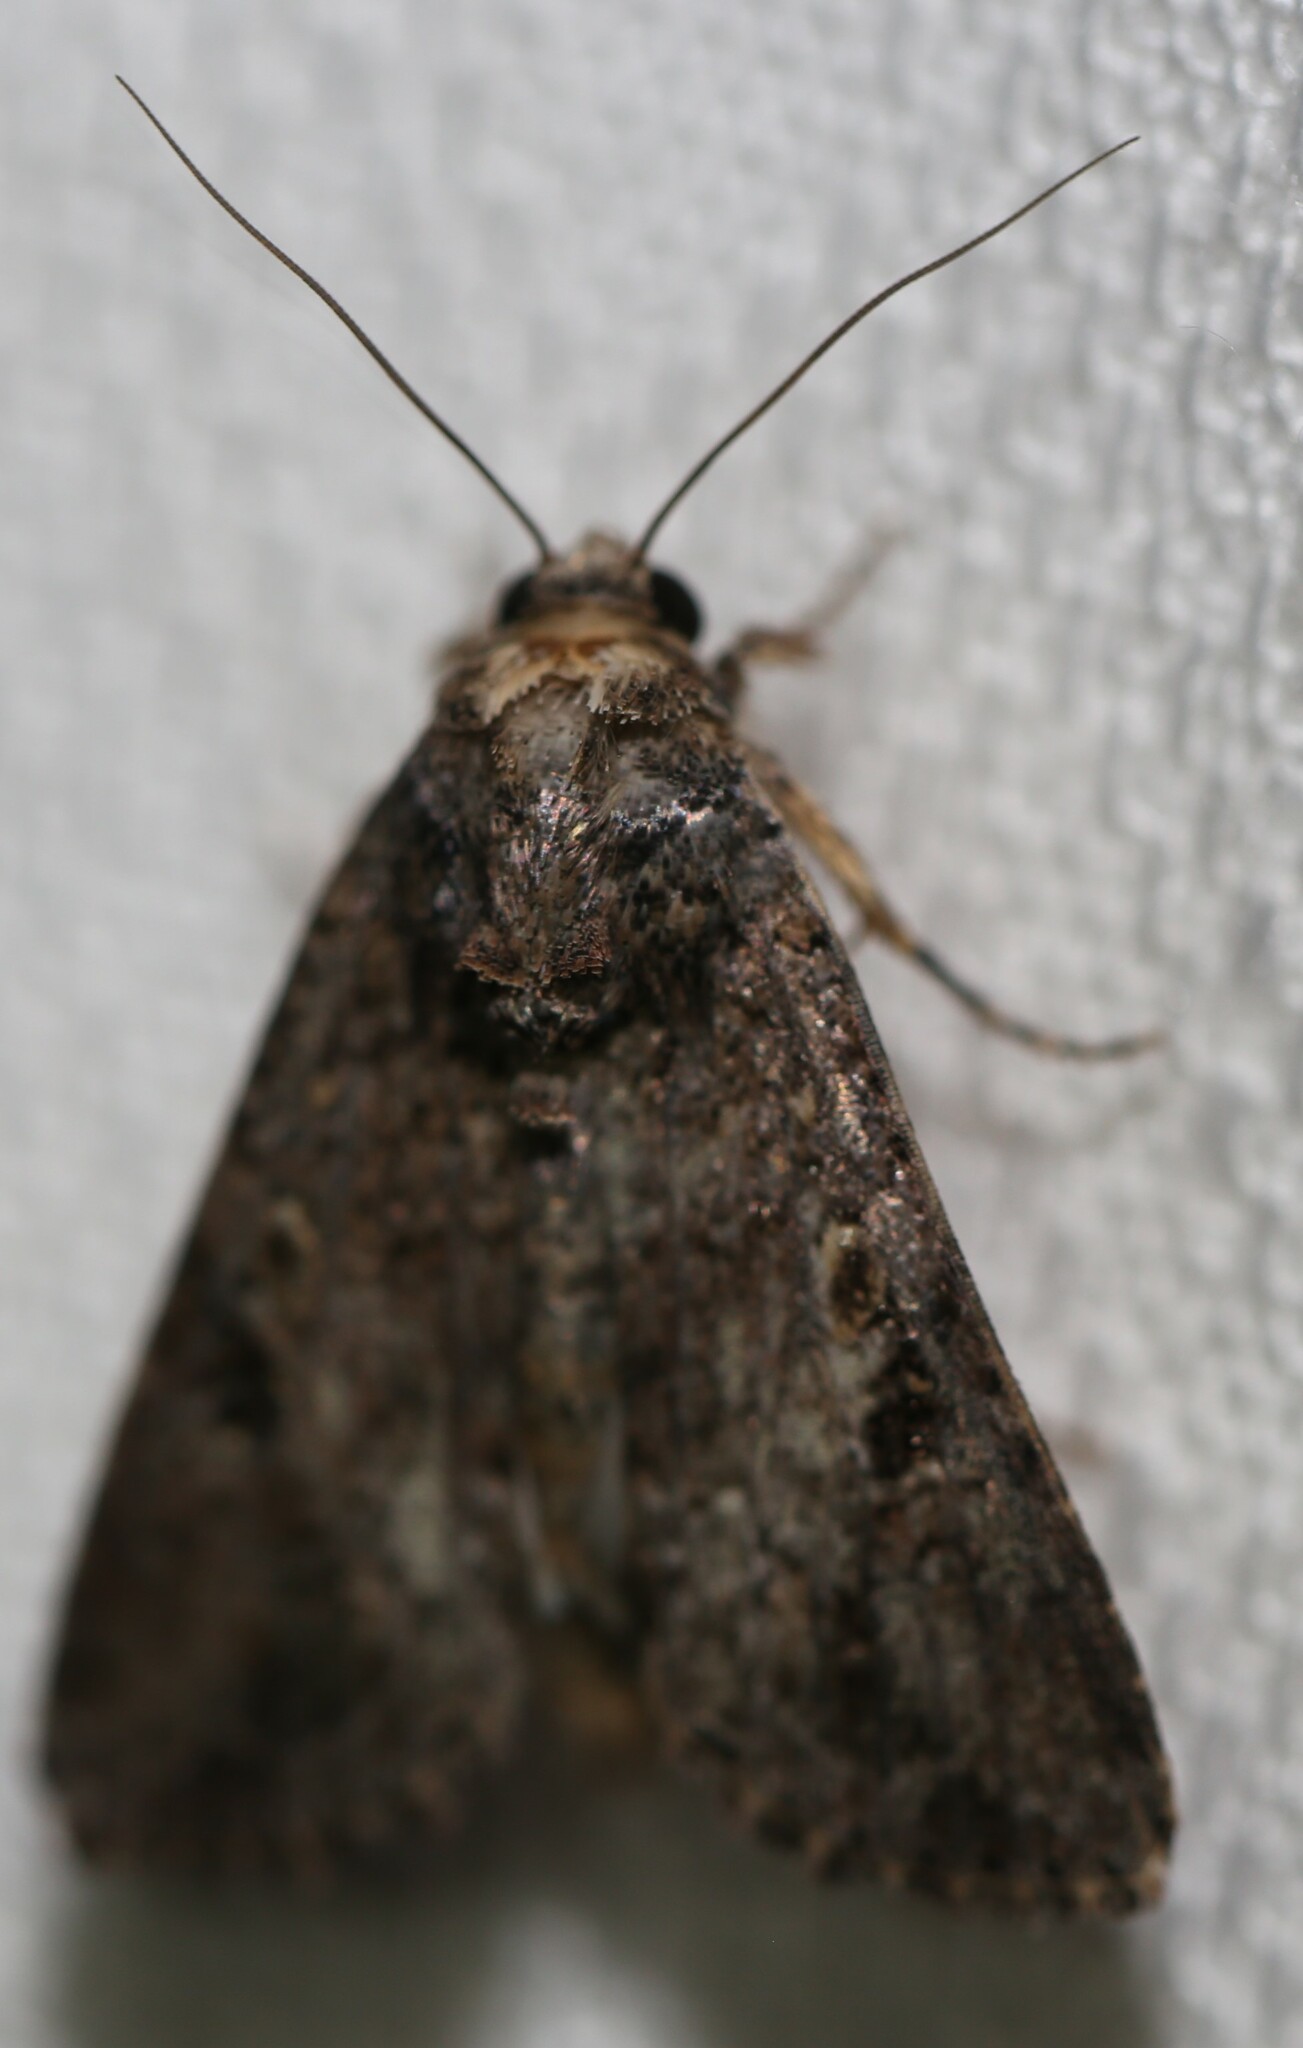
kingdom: Animalia
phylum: Arthropoda
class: Insecta
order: Lepidoptera
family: Noctuidae
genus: Spodoptera
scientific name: Spodoptera mauritia
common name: Lawn armyworm
